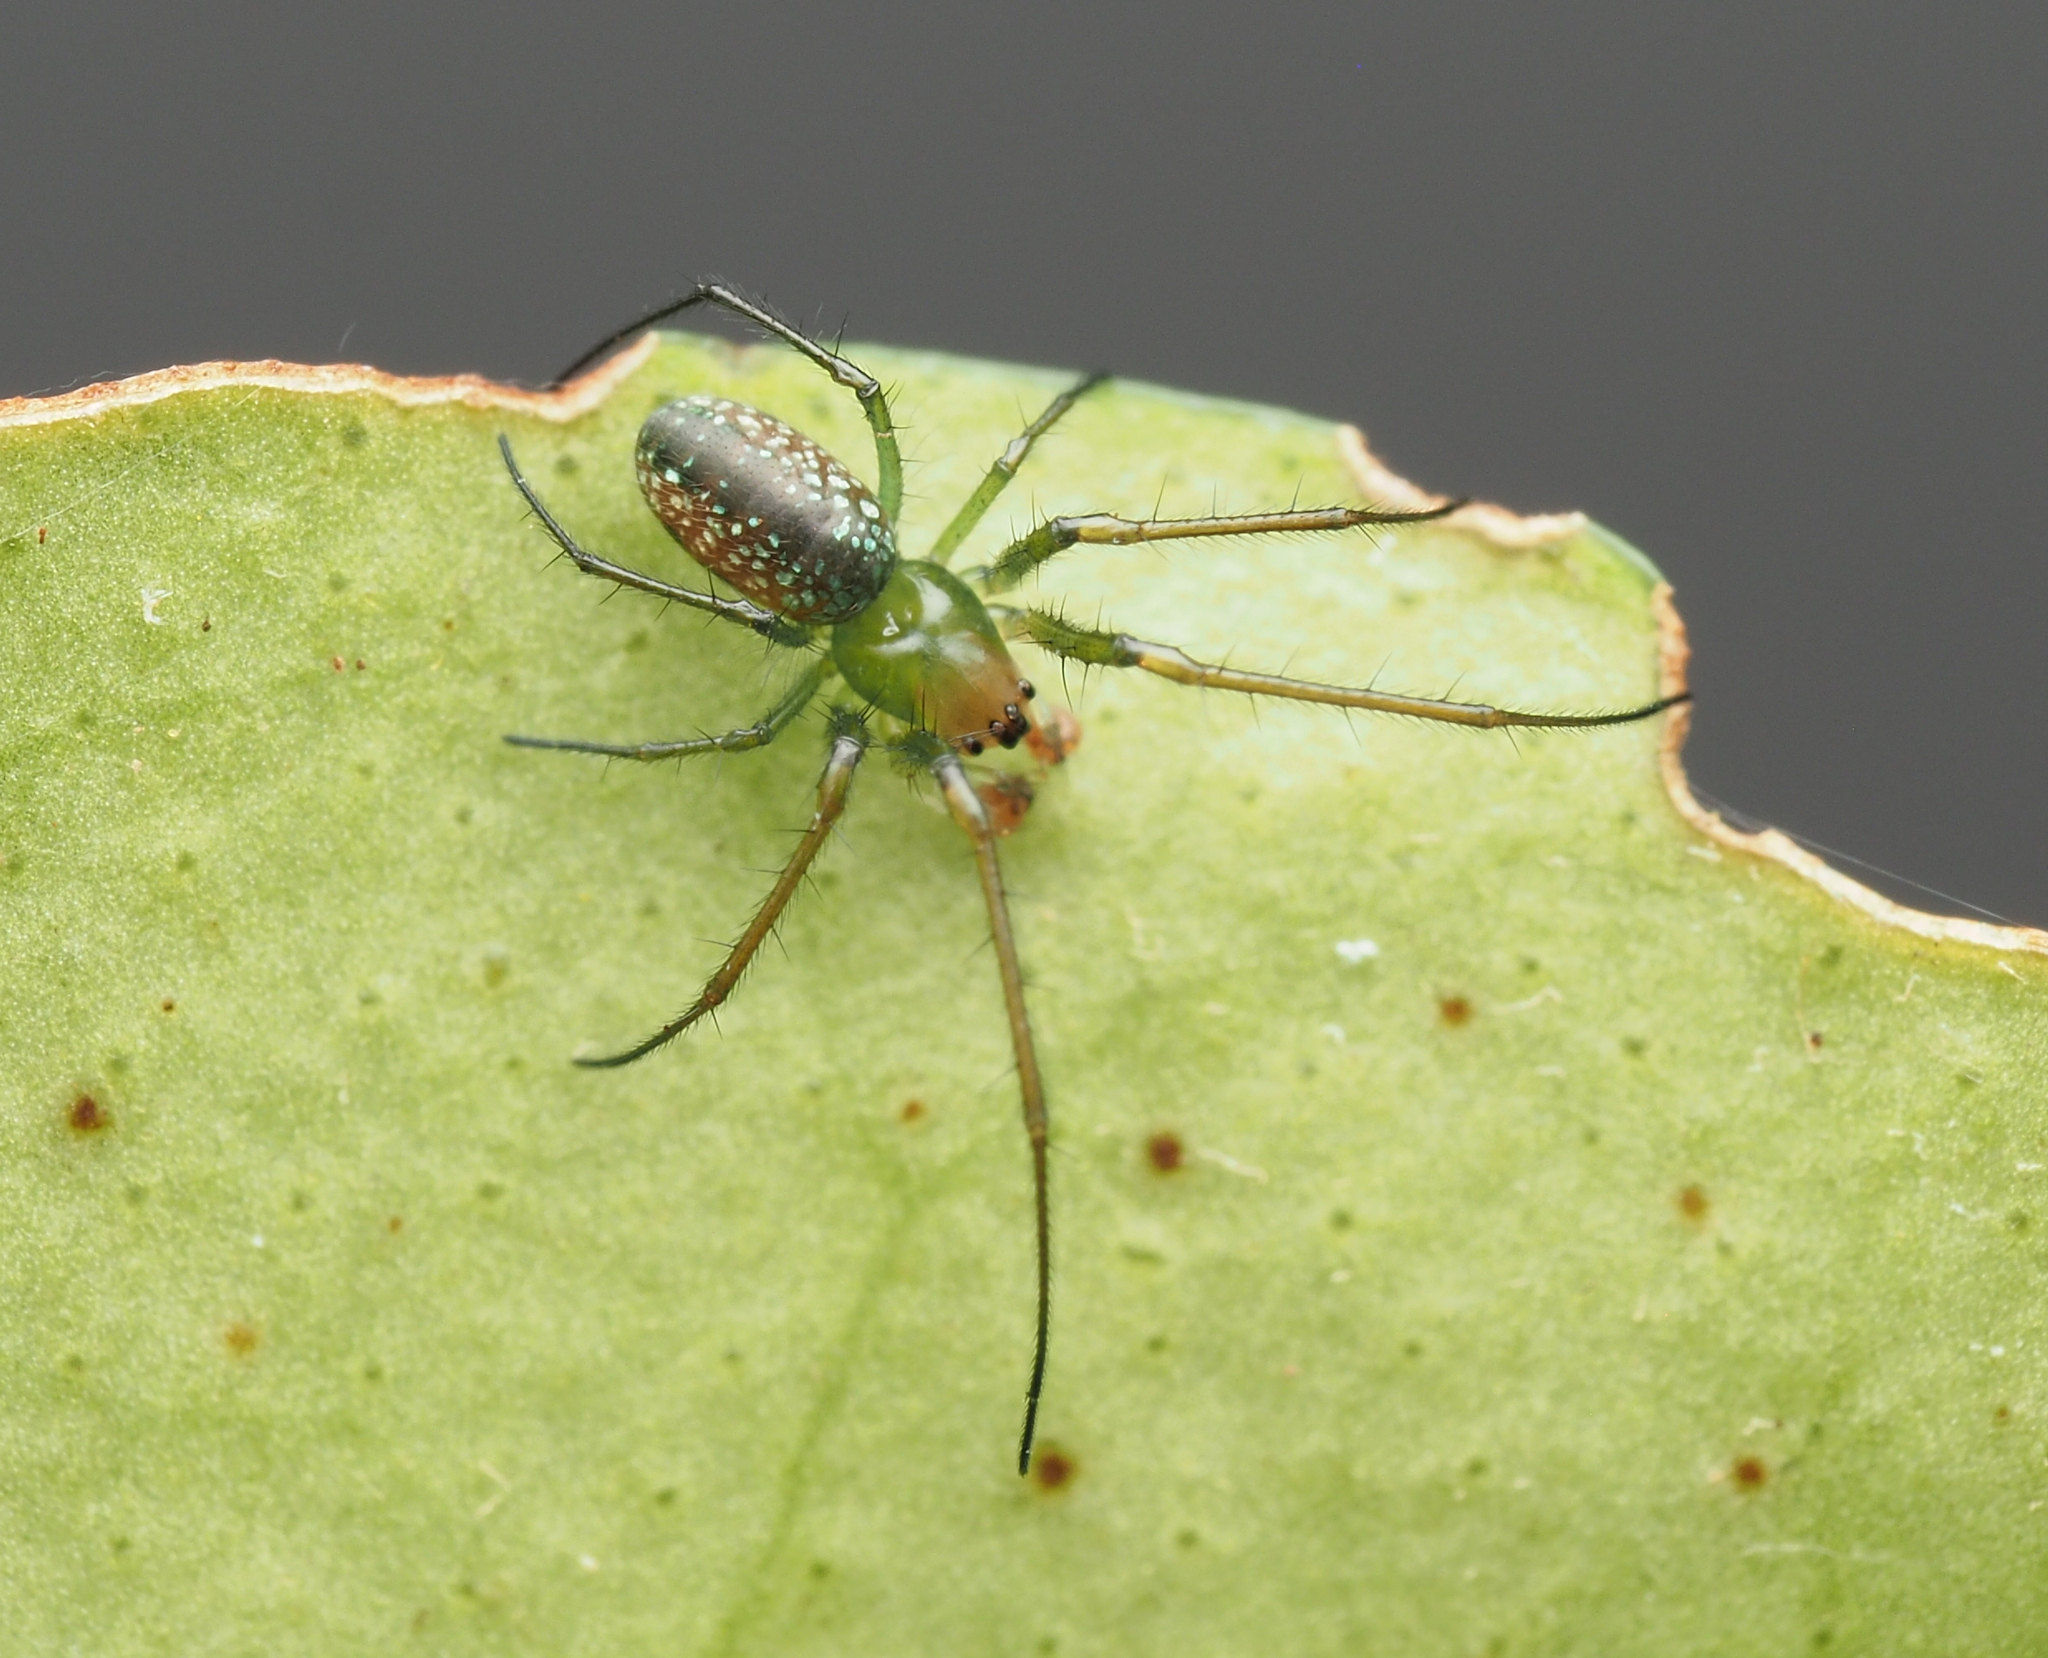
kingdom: Animalia
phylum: Arthropoda
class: Arachnida
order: Araneae
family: Tetragnathidae
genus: Mesida
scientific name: Mesida argentiopunctata
